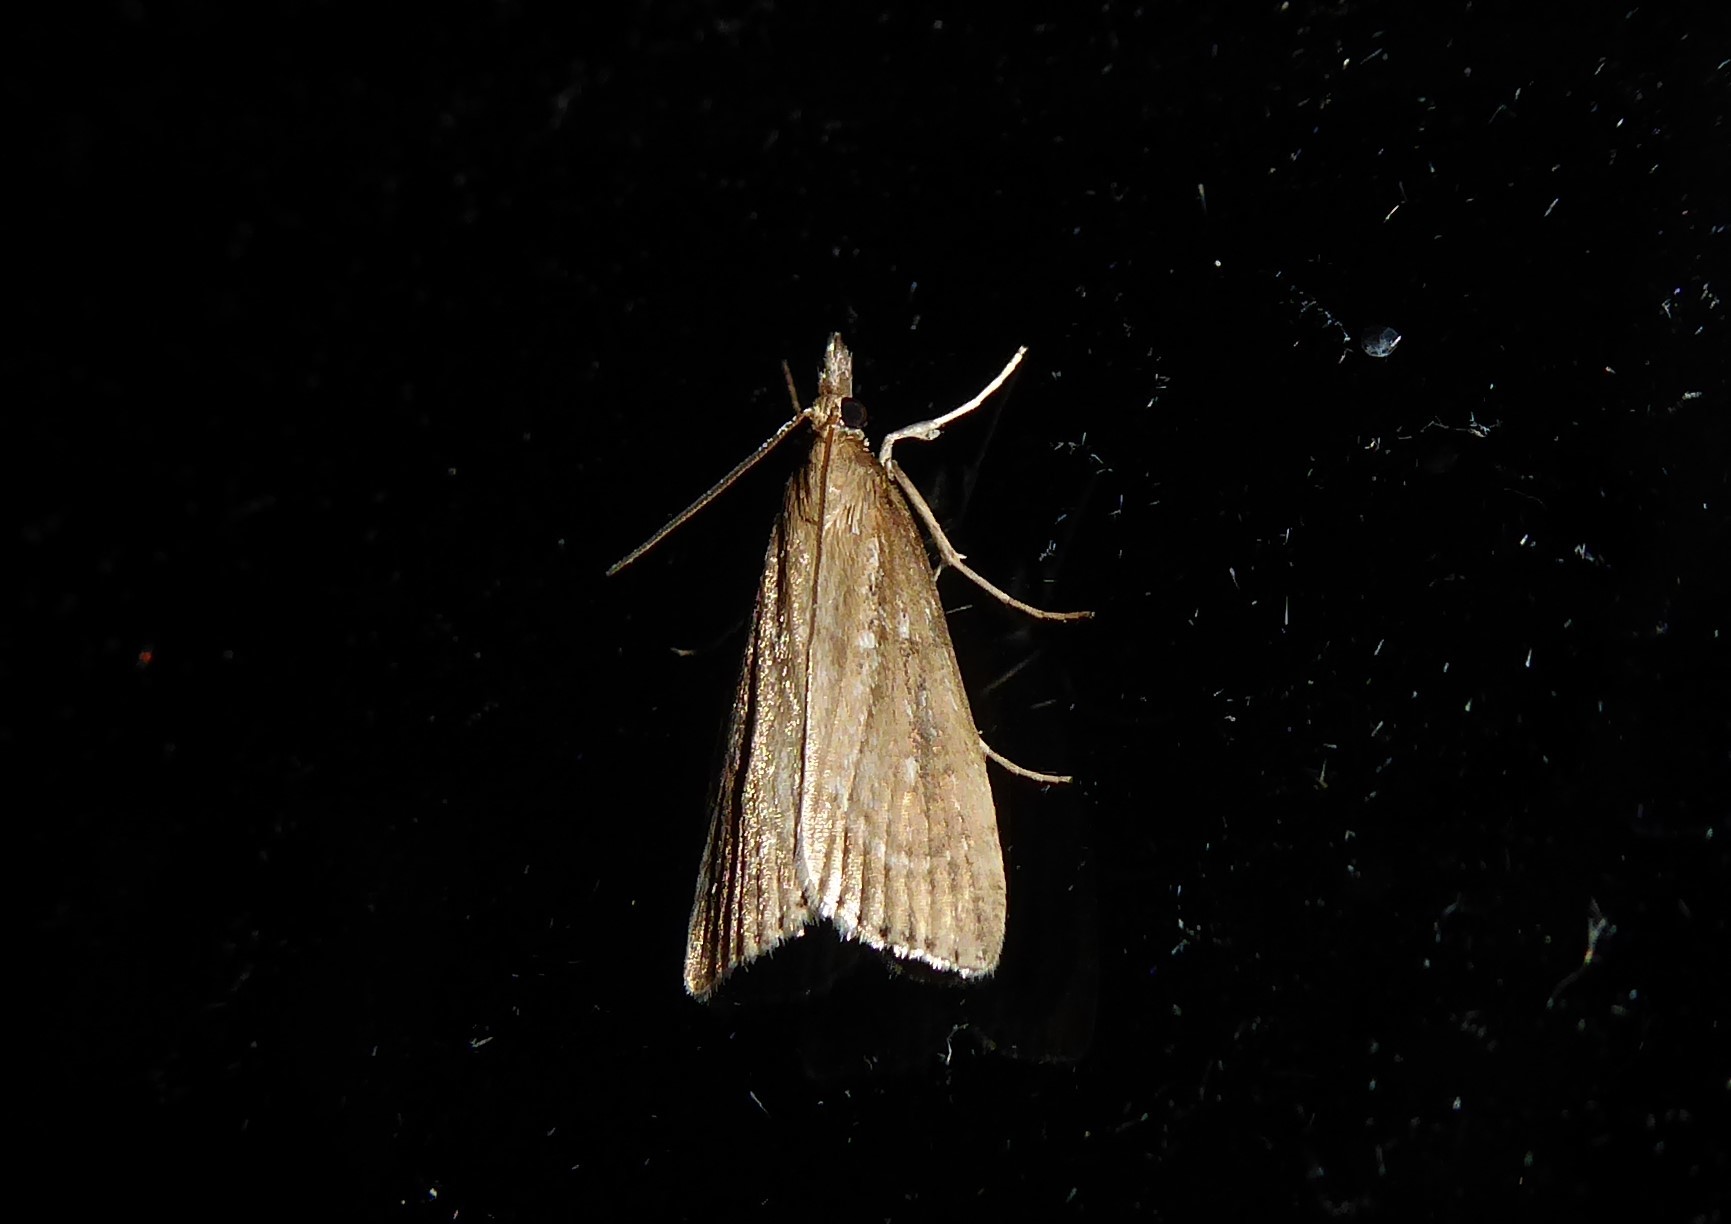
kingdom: Animalia
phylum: Arthropoda
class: Insecta
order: Lepidoptera
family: Crambidae
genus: Eudonia
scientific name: Eudonia octophora
